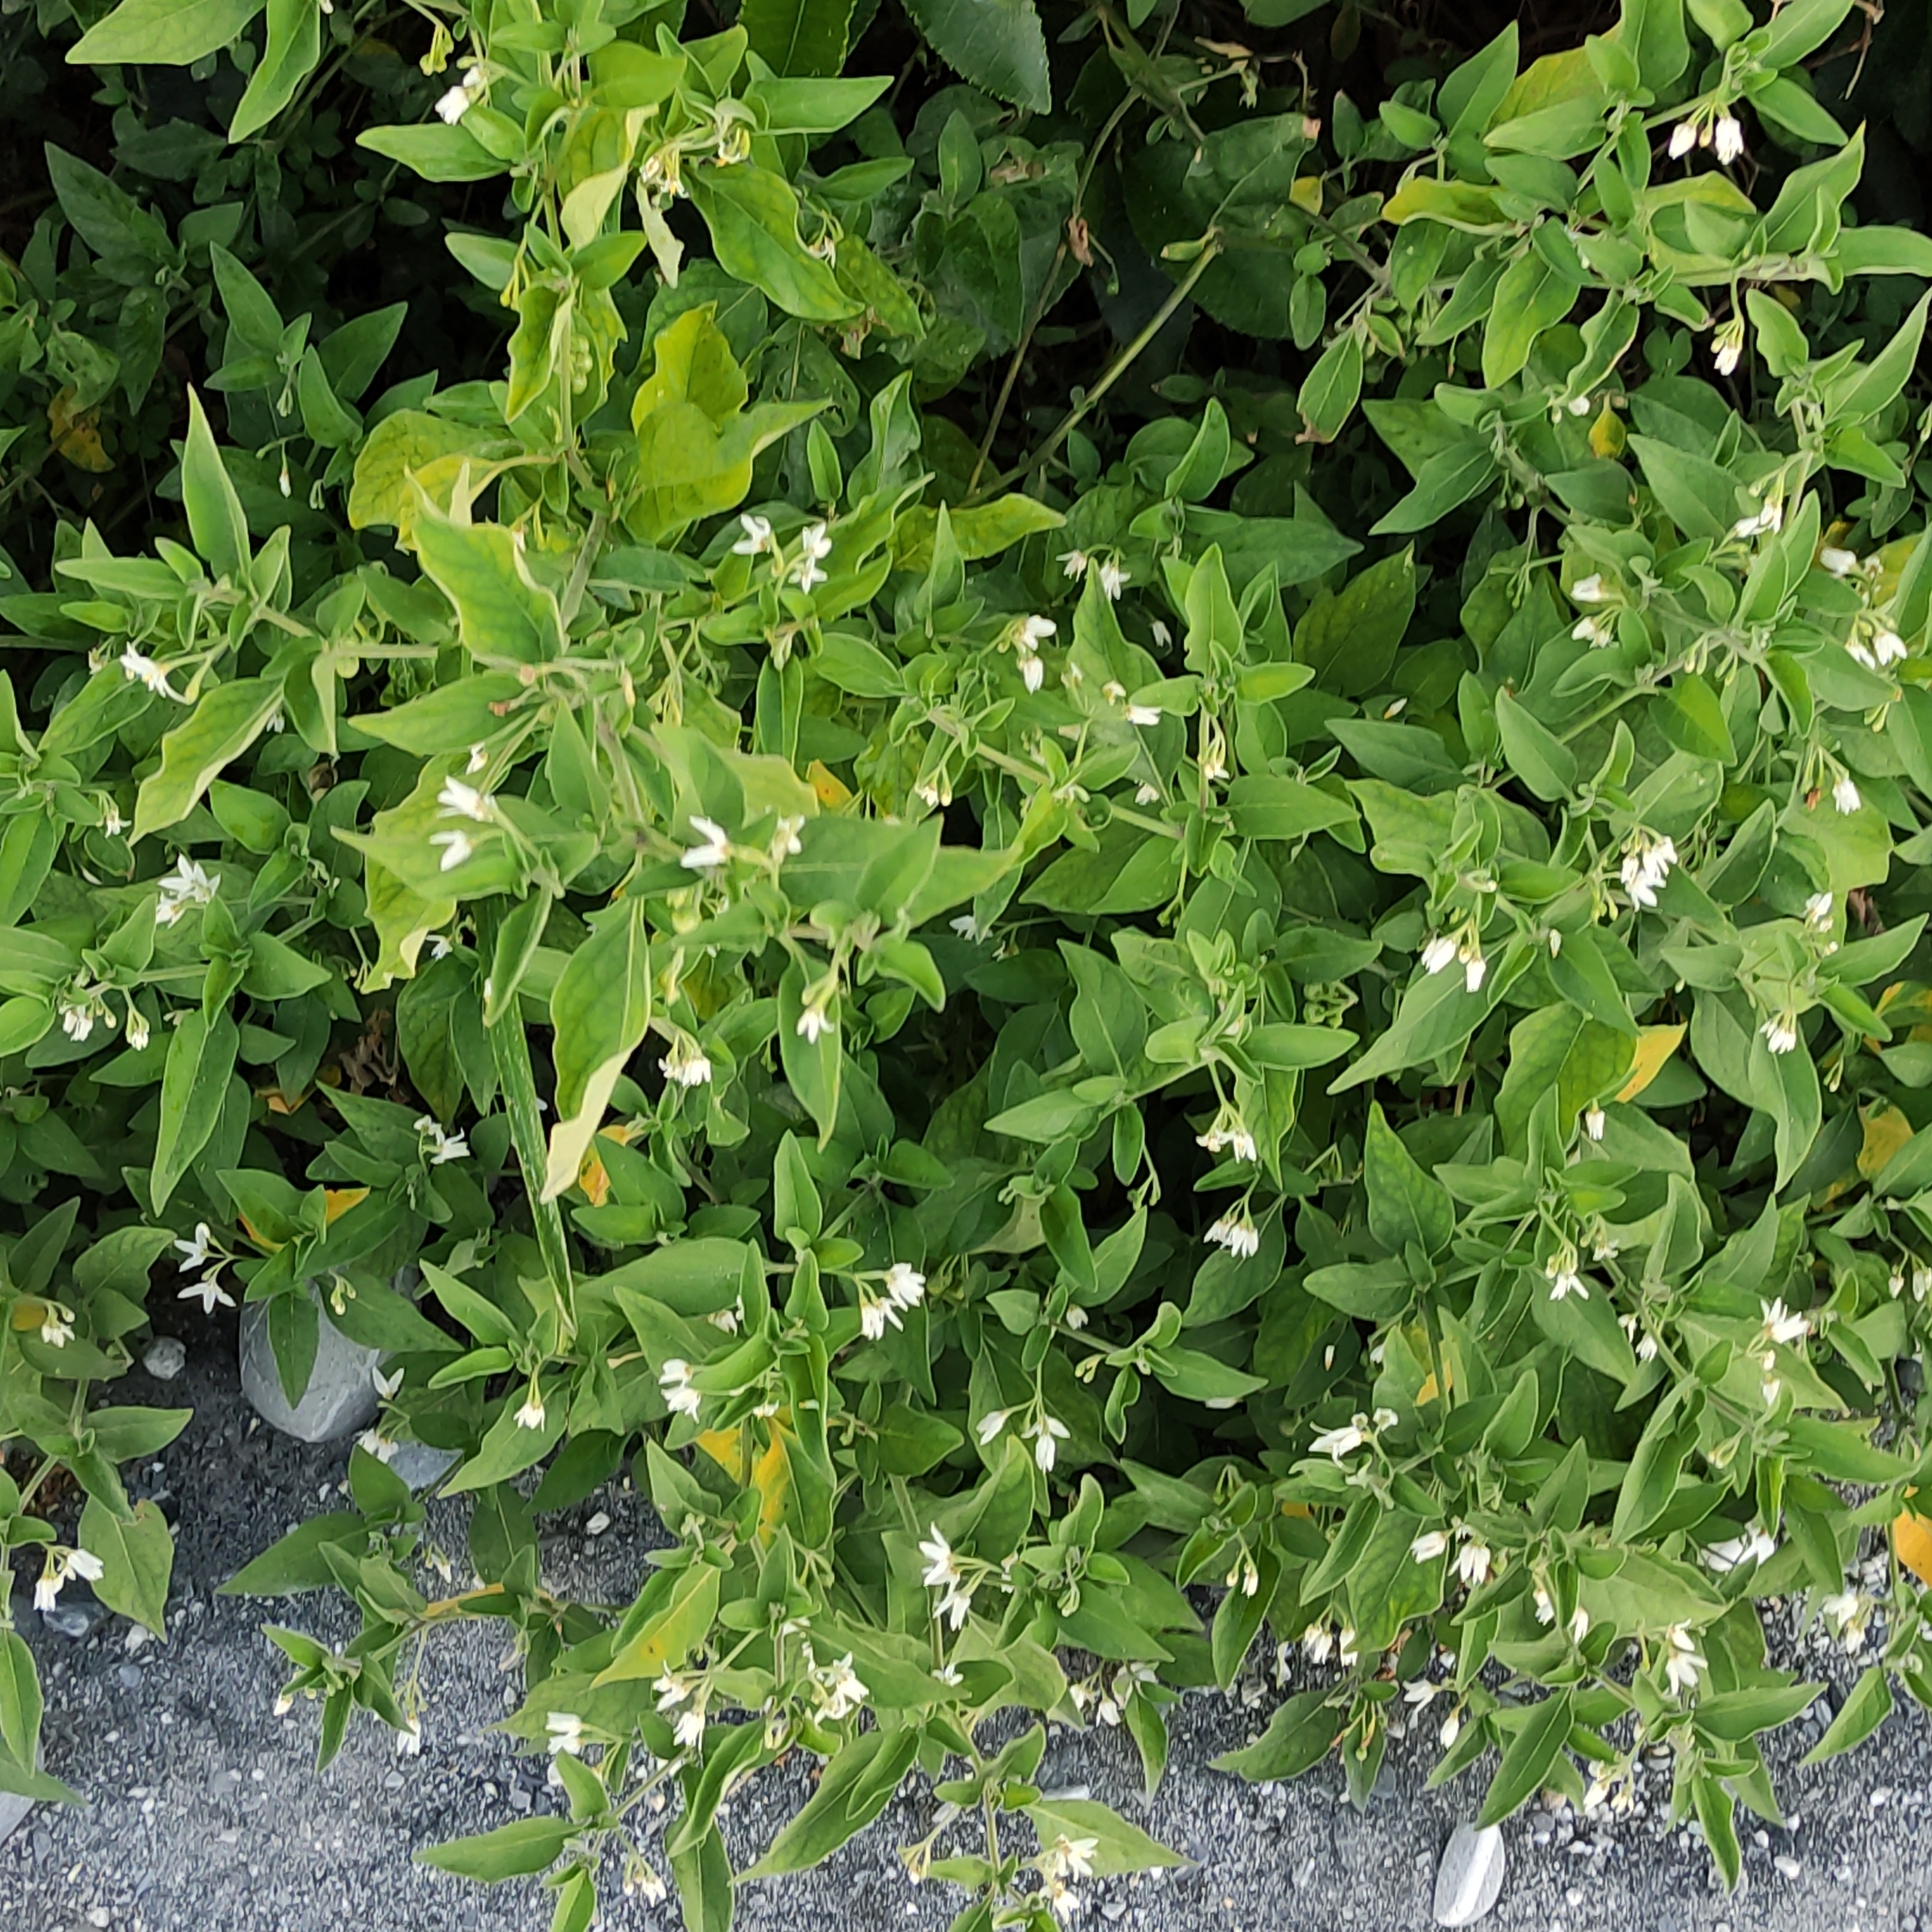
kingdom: Plantae
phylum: Tracheophyta
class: Magnoliopsida
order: Solanales
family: Solanaceae
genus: Solanum
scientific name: Solanum chenopodioides
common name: Tall nightshade
